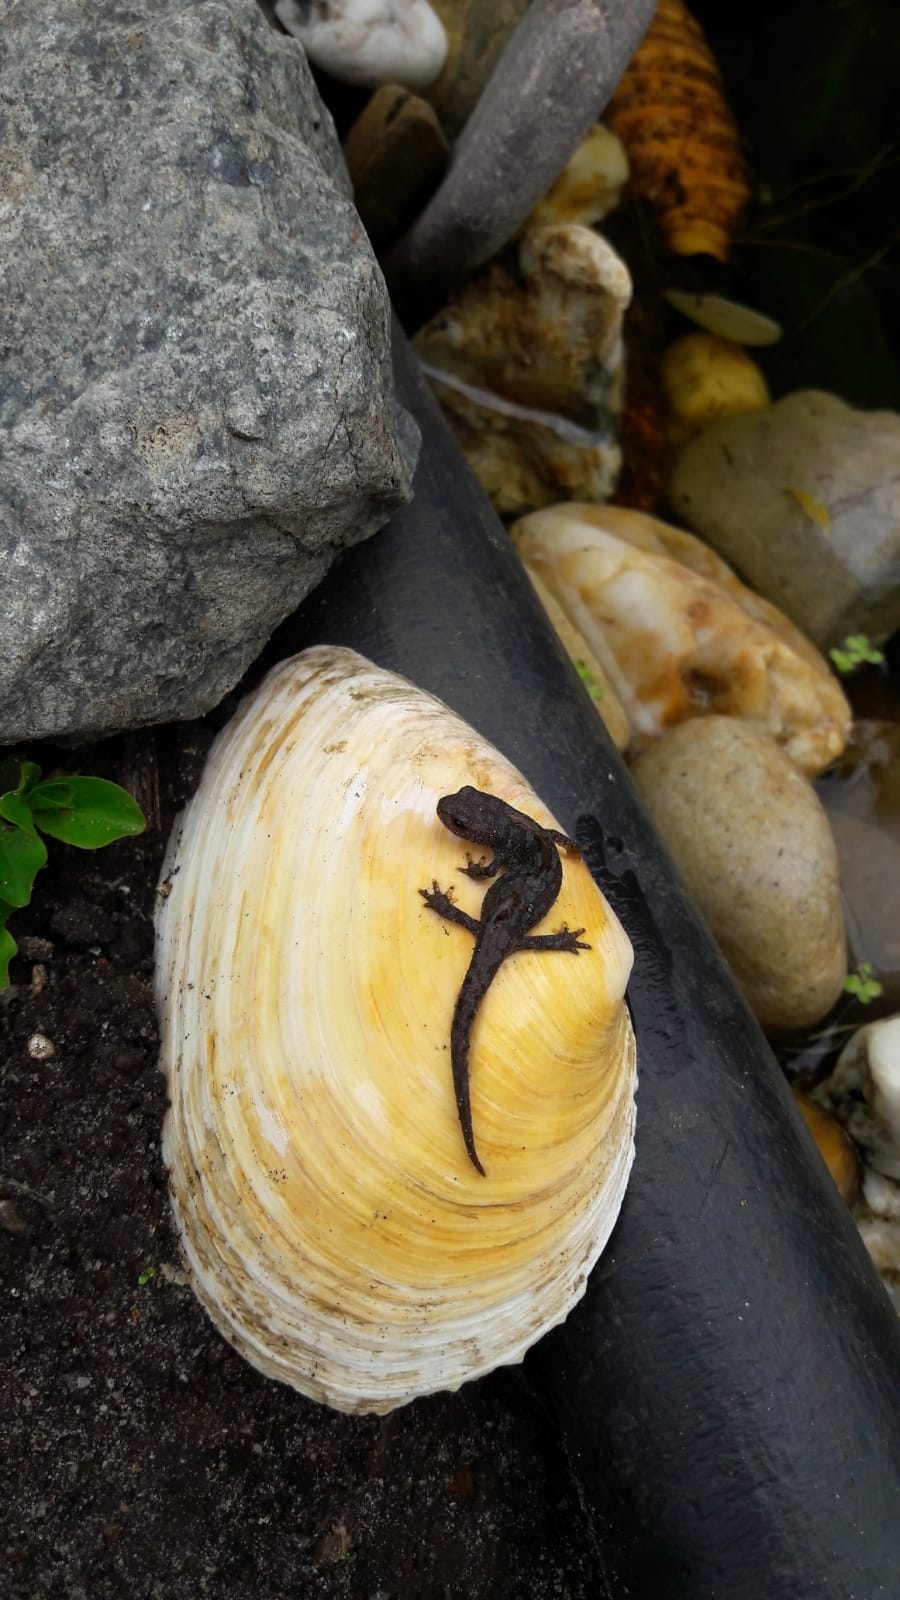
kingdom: Animalia
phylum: Chordata
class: Amphibia
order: Caudata
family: Salamandridae
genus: Ichthyosaura
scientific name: Ichthyosaura alpestris
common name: Alpine newt
